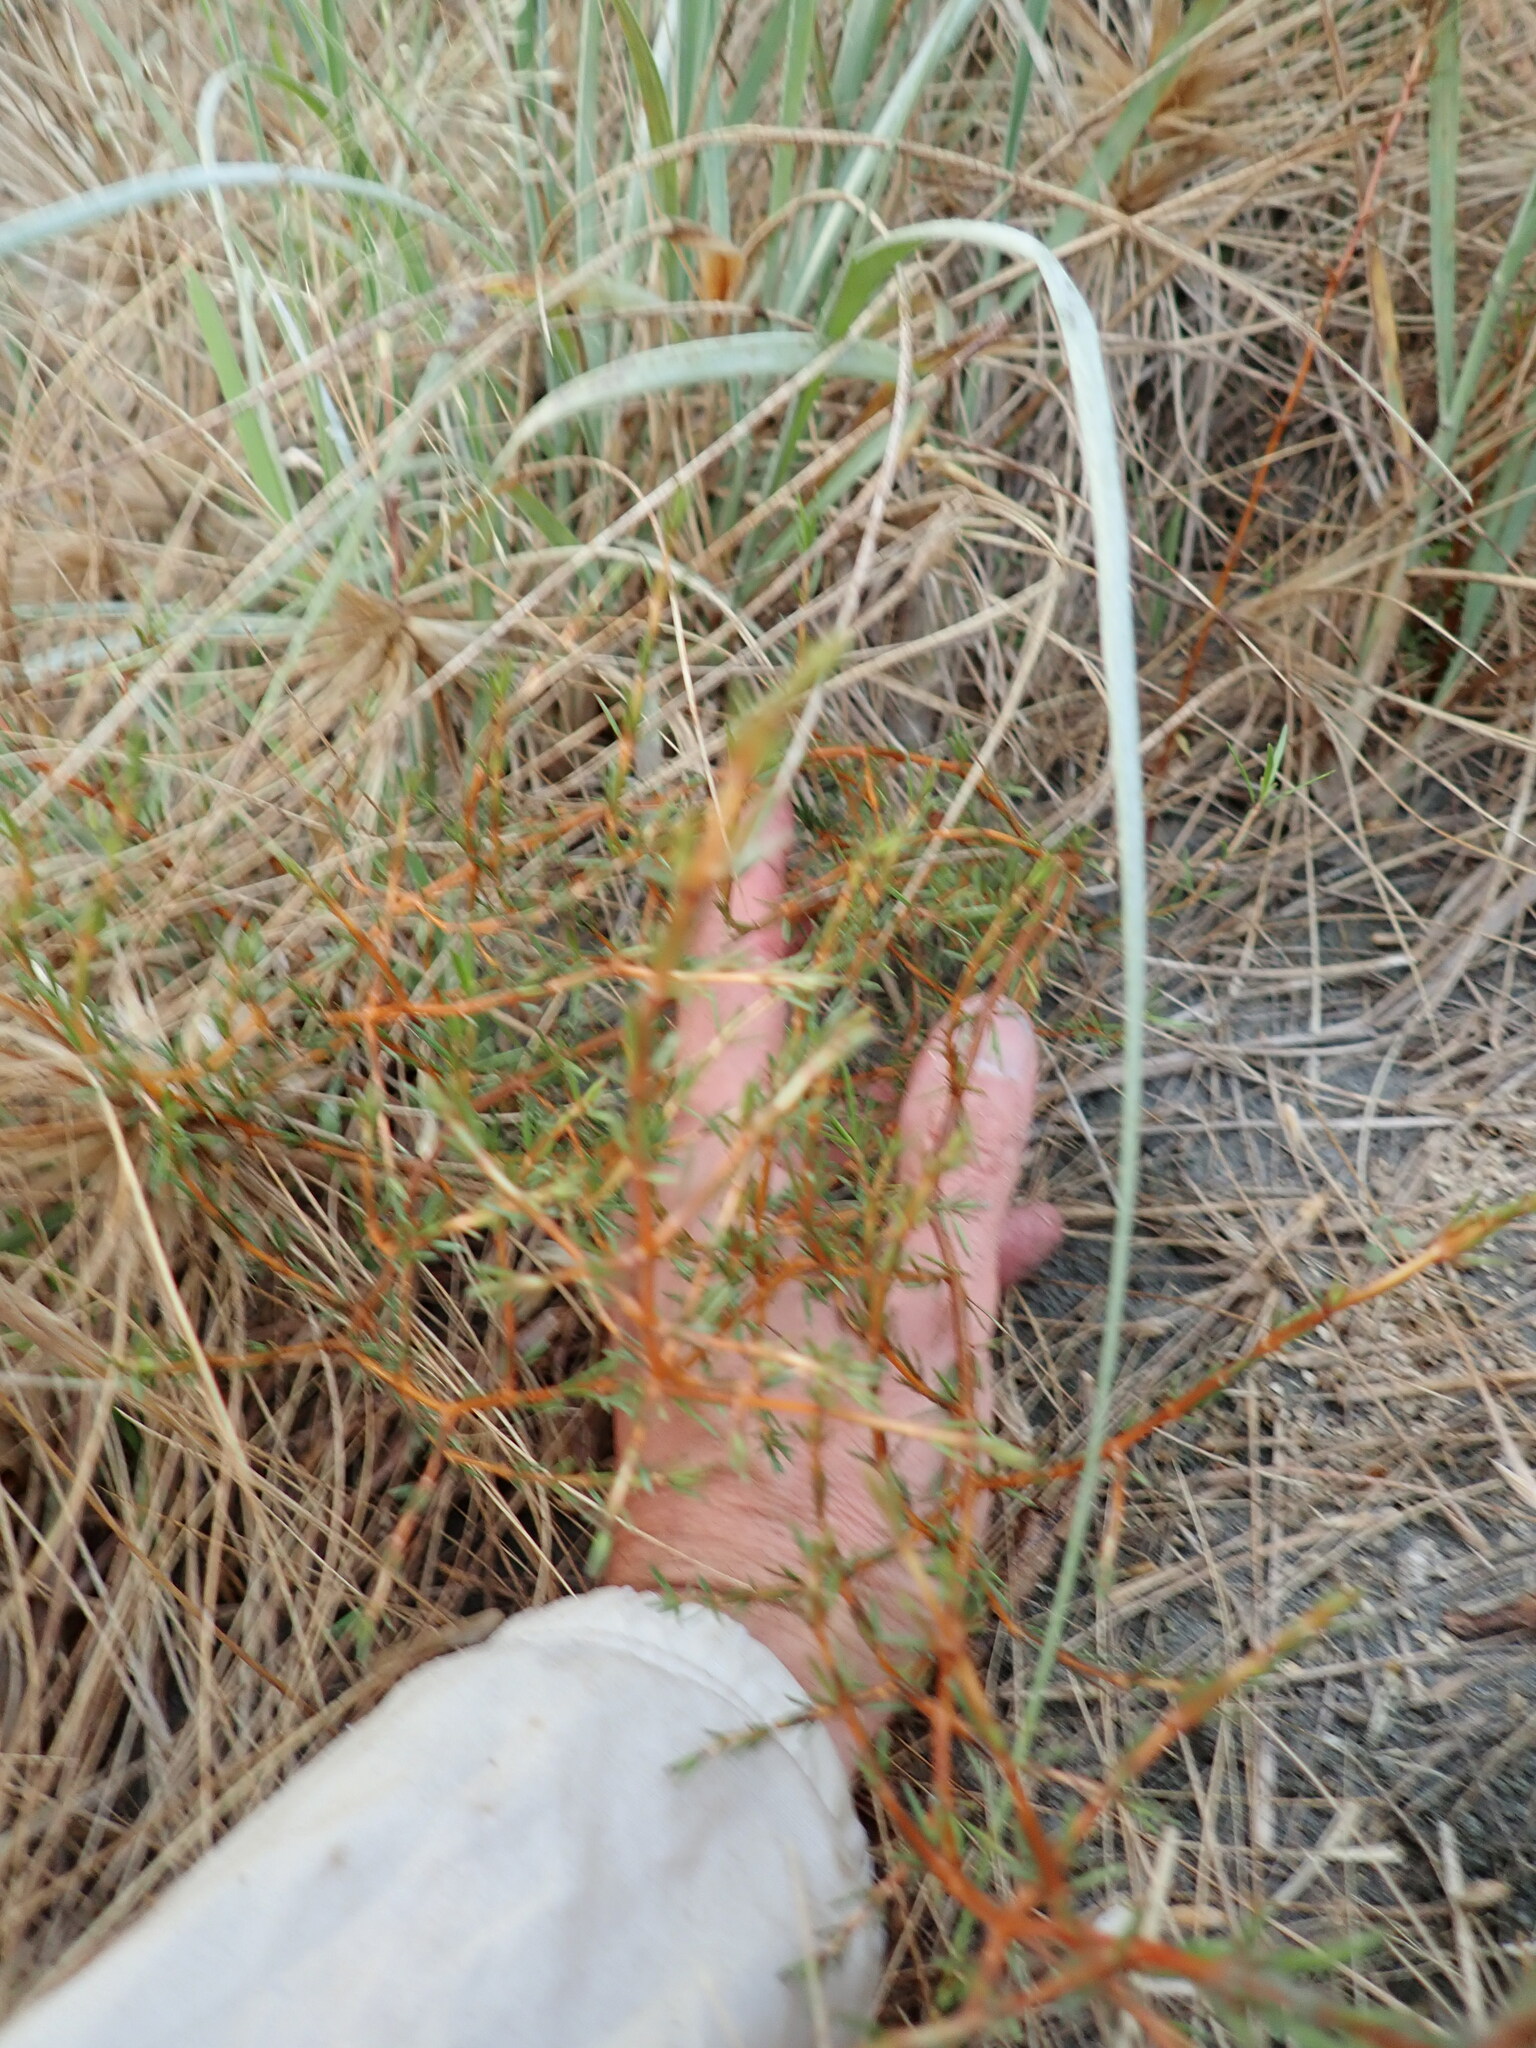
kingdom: Plantae
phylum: Tracheophyta
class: Magnoliopsida
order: Gentianales
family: Rubiaceae
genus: Coprosma
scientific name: Coprosma acerosa
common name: Sand coprosma
